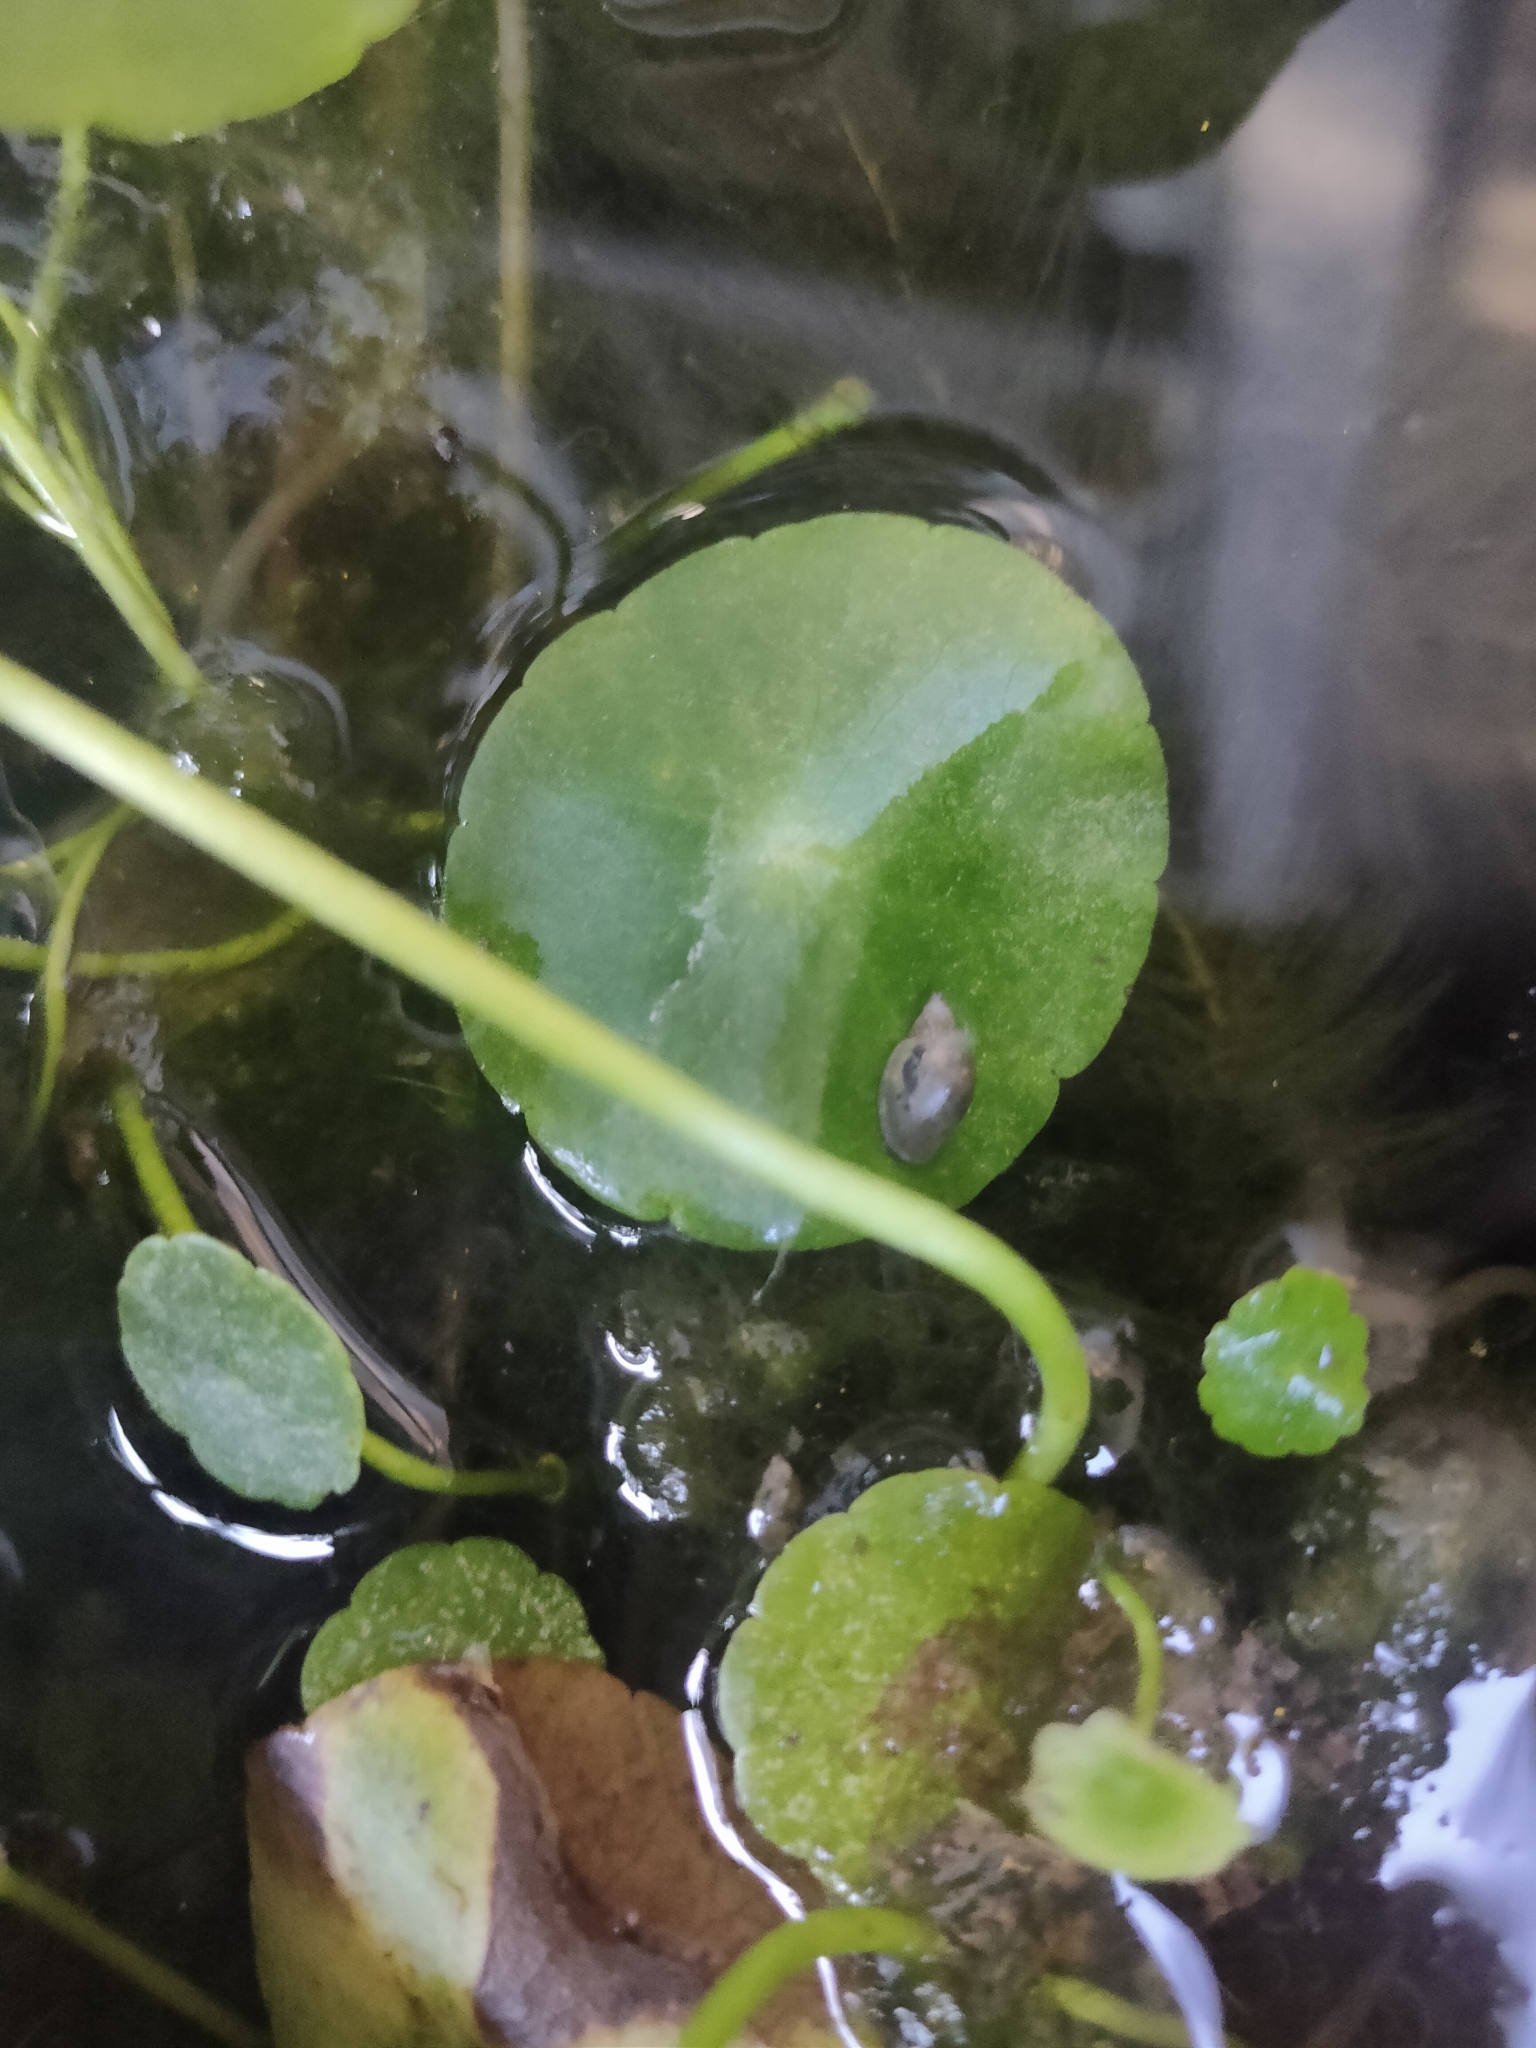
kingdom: Animalia
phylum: Mollusca
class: Gastropoda
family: Physidae
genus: Physella
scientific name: Physella acuta
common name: European physa
